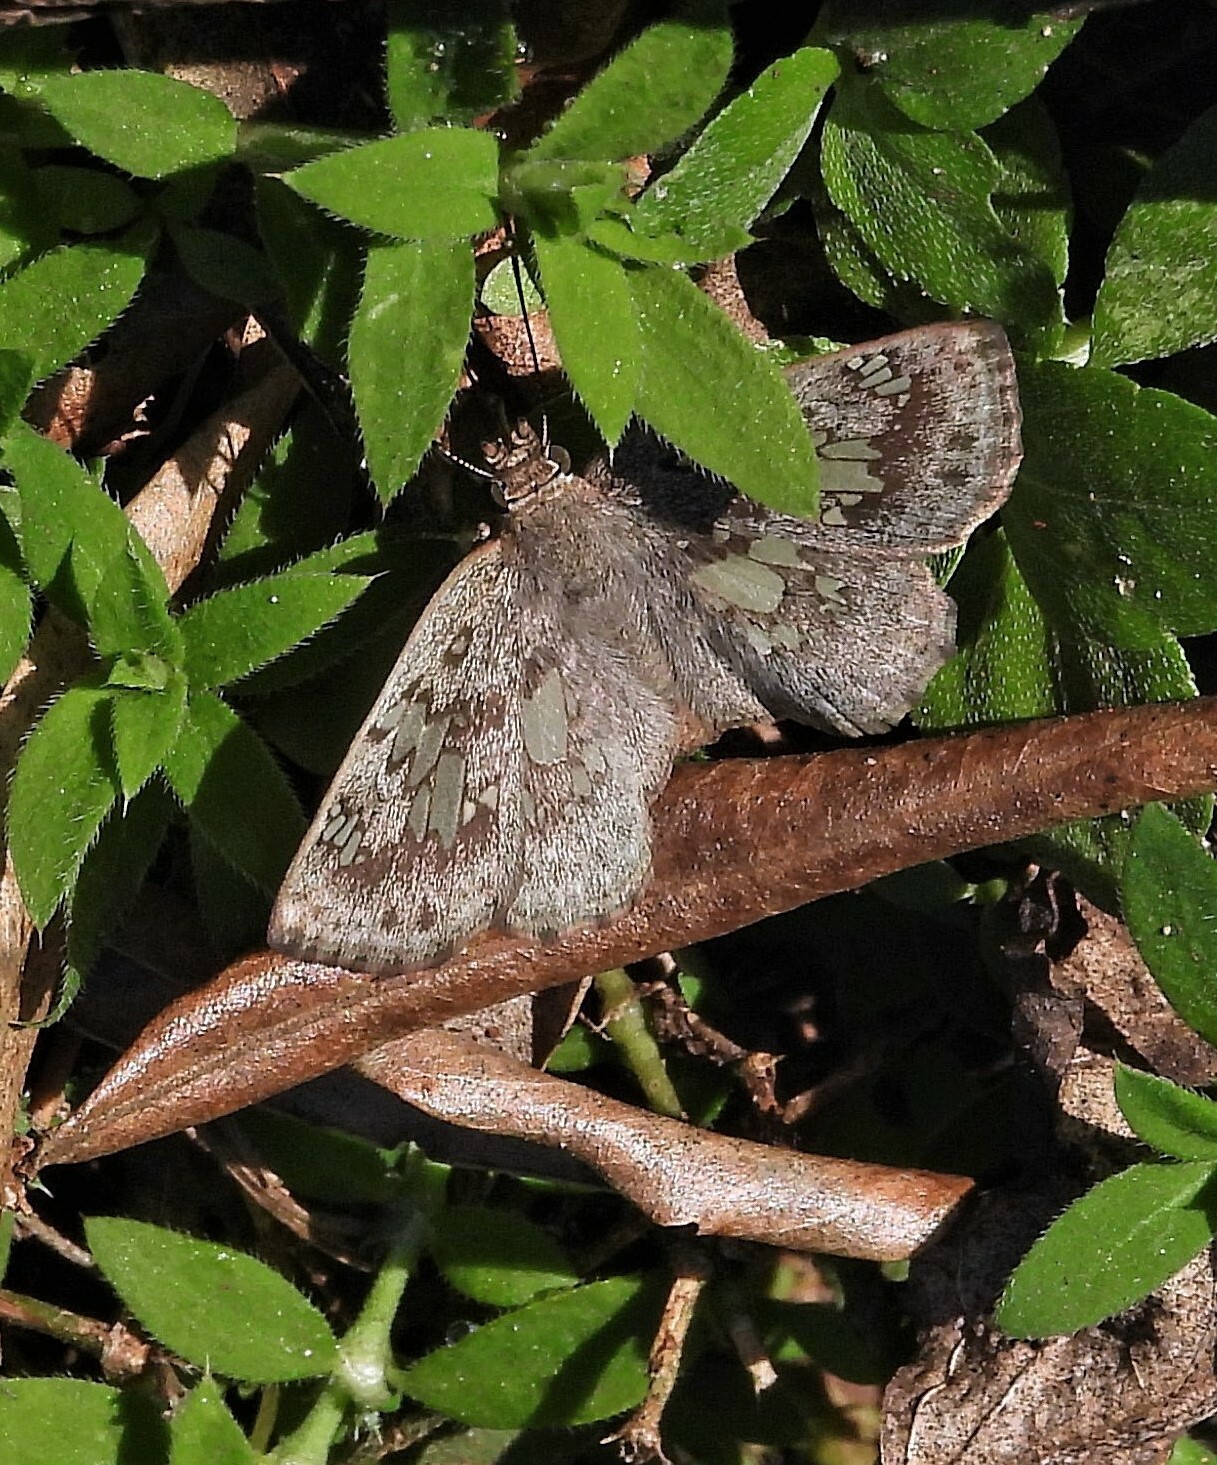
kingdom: Animalia
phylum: Arthropoda
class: Insecta
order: Lepidoptera
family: Hesperiidae
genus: Xenophanes
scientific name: Xenophanes tryxus
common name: Glassy-winged skipper
